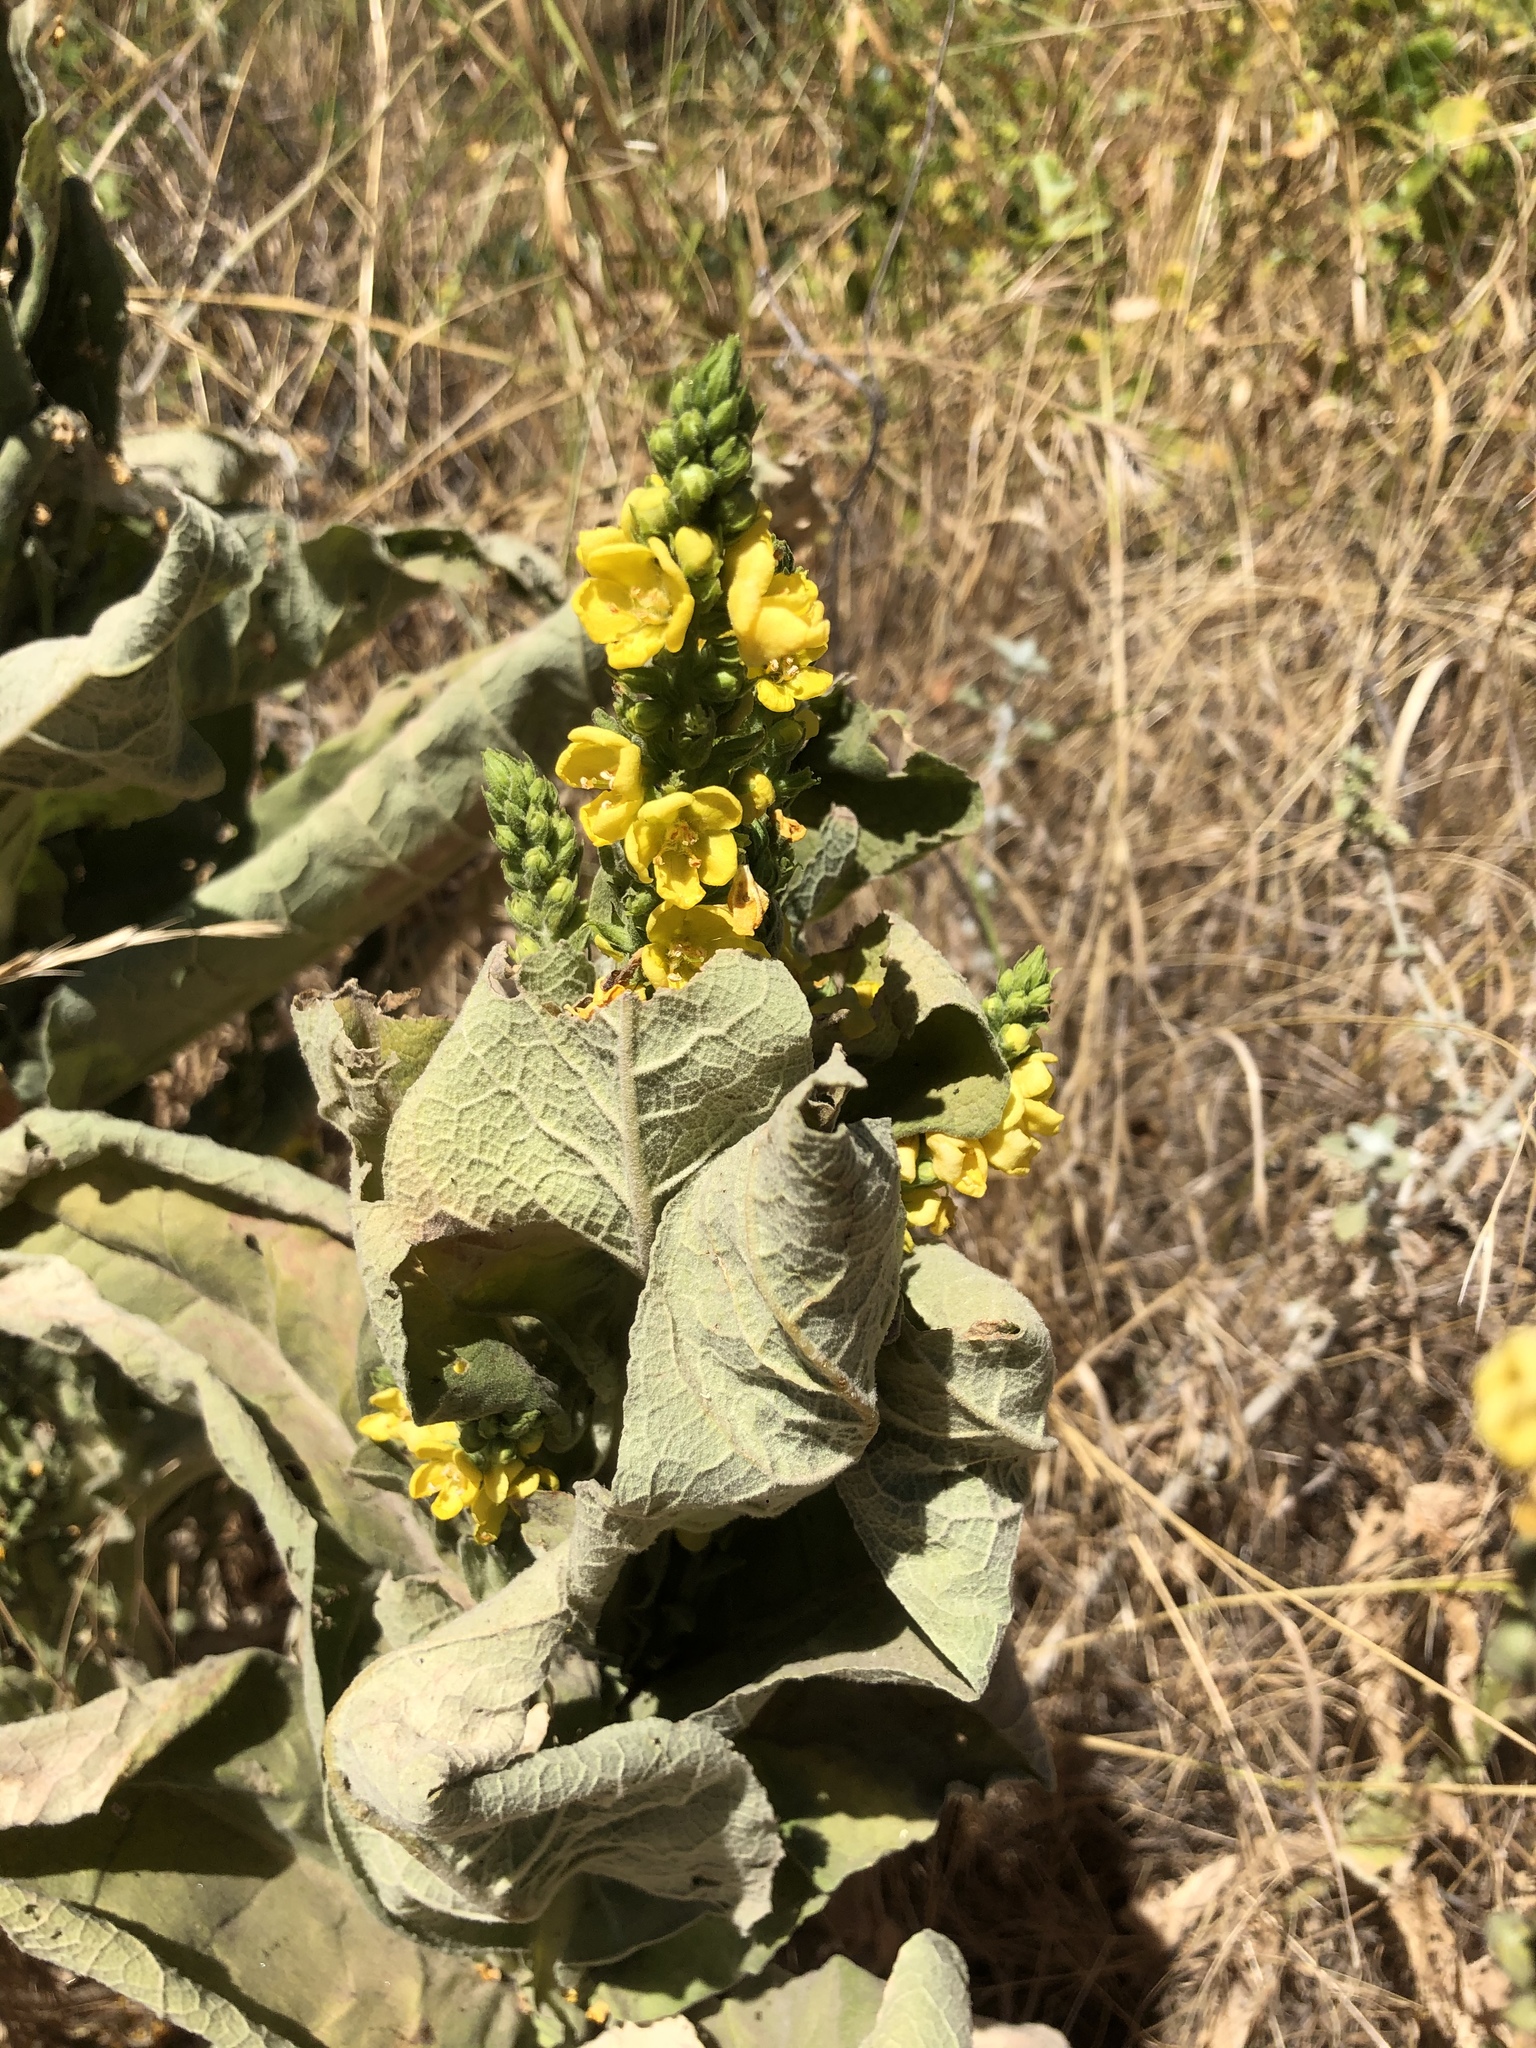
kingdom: Plantae
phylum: Tracheophyta
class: Magnoliopsida
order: Lamiales
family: Scrophulariaceae
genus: Verbascum
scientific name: Verbascum thapsus
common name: Common mullein
